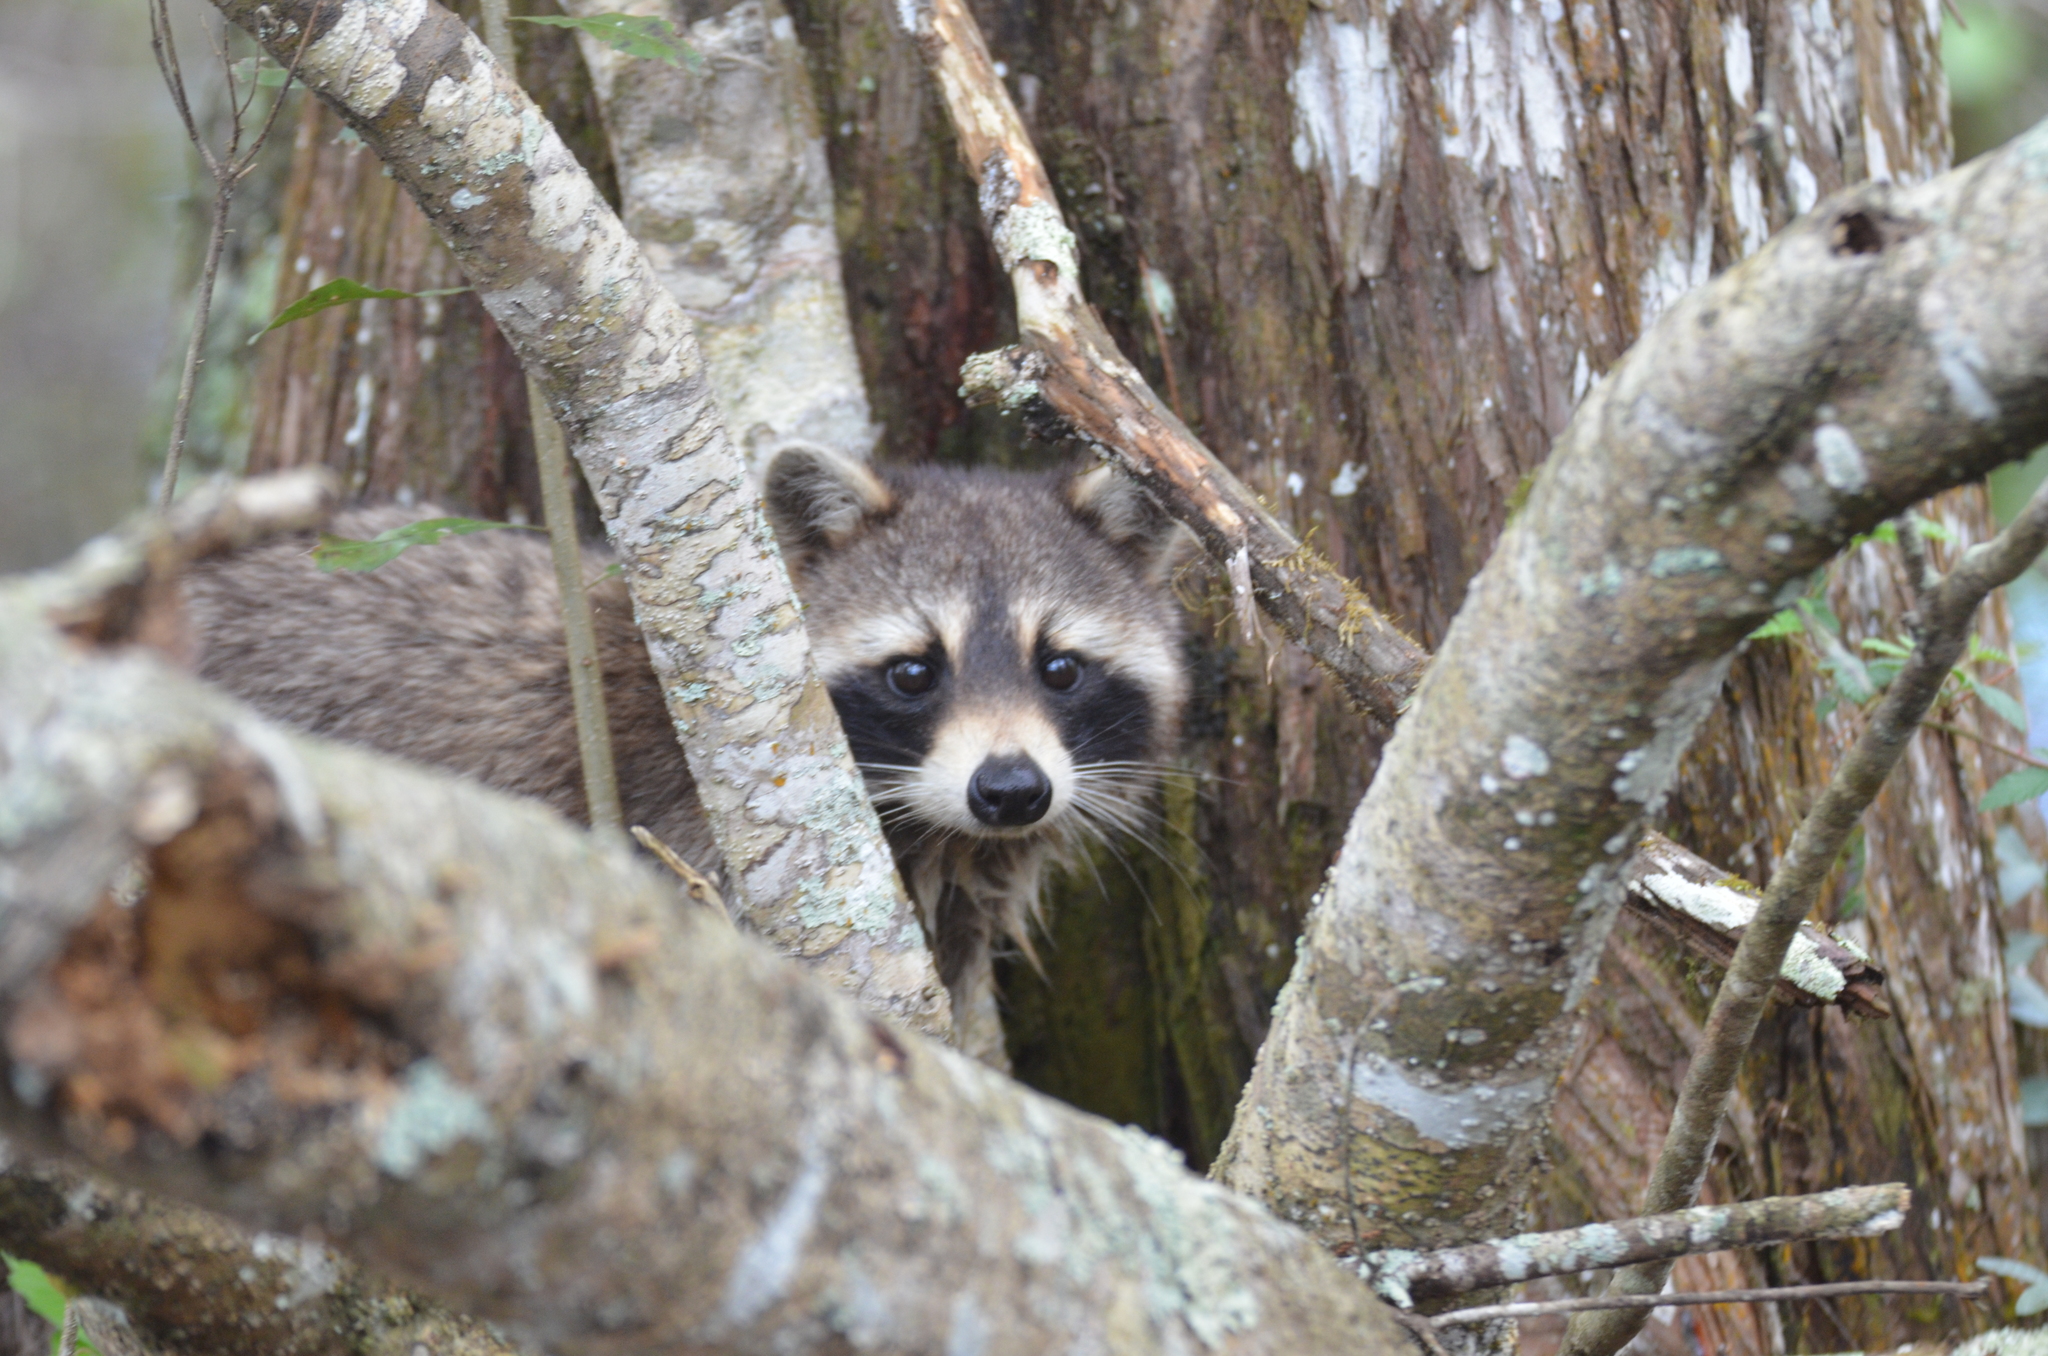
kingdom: Animalia
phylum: Chordata
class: Mammalia
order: Carnivora
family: Procyonidae
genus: Procyon
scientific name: Procyon lotor
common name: Raccoon
